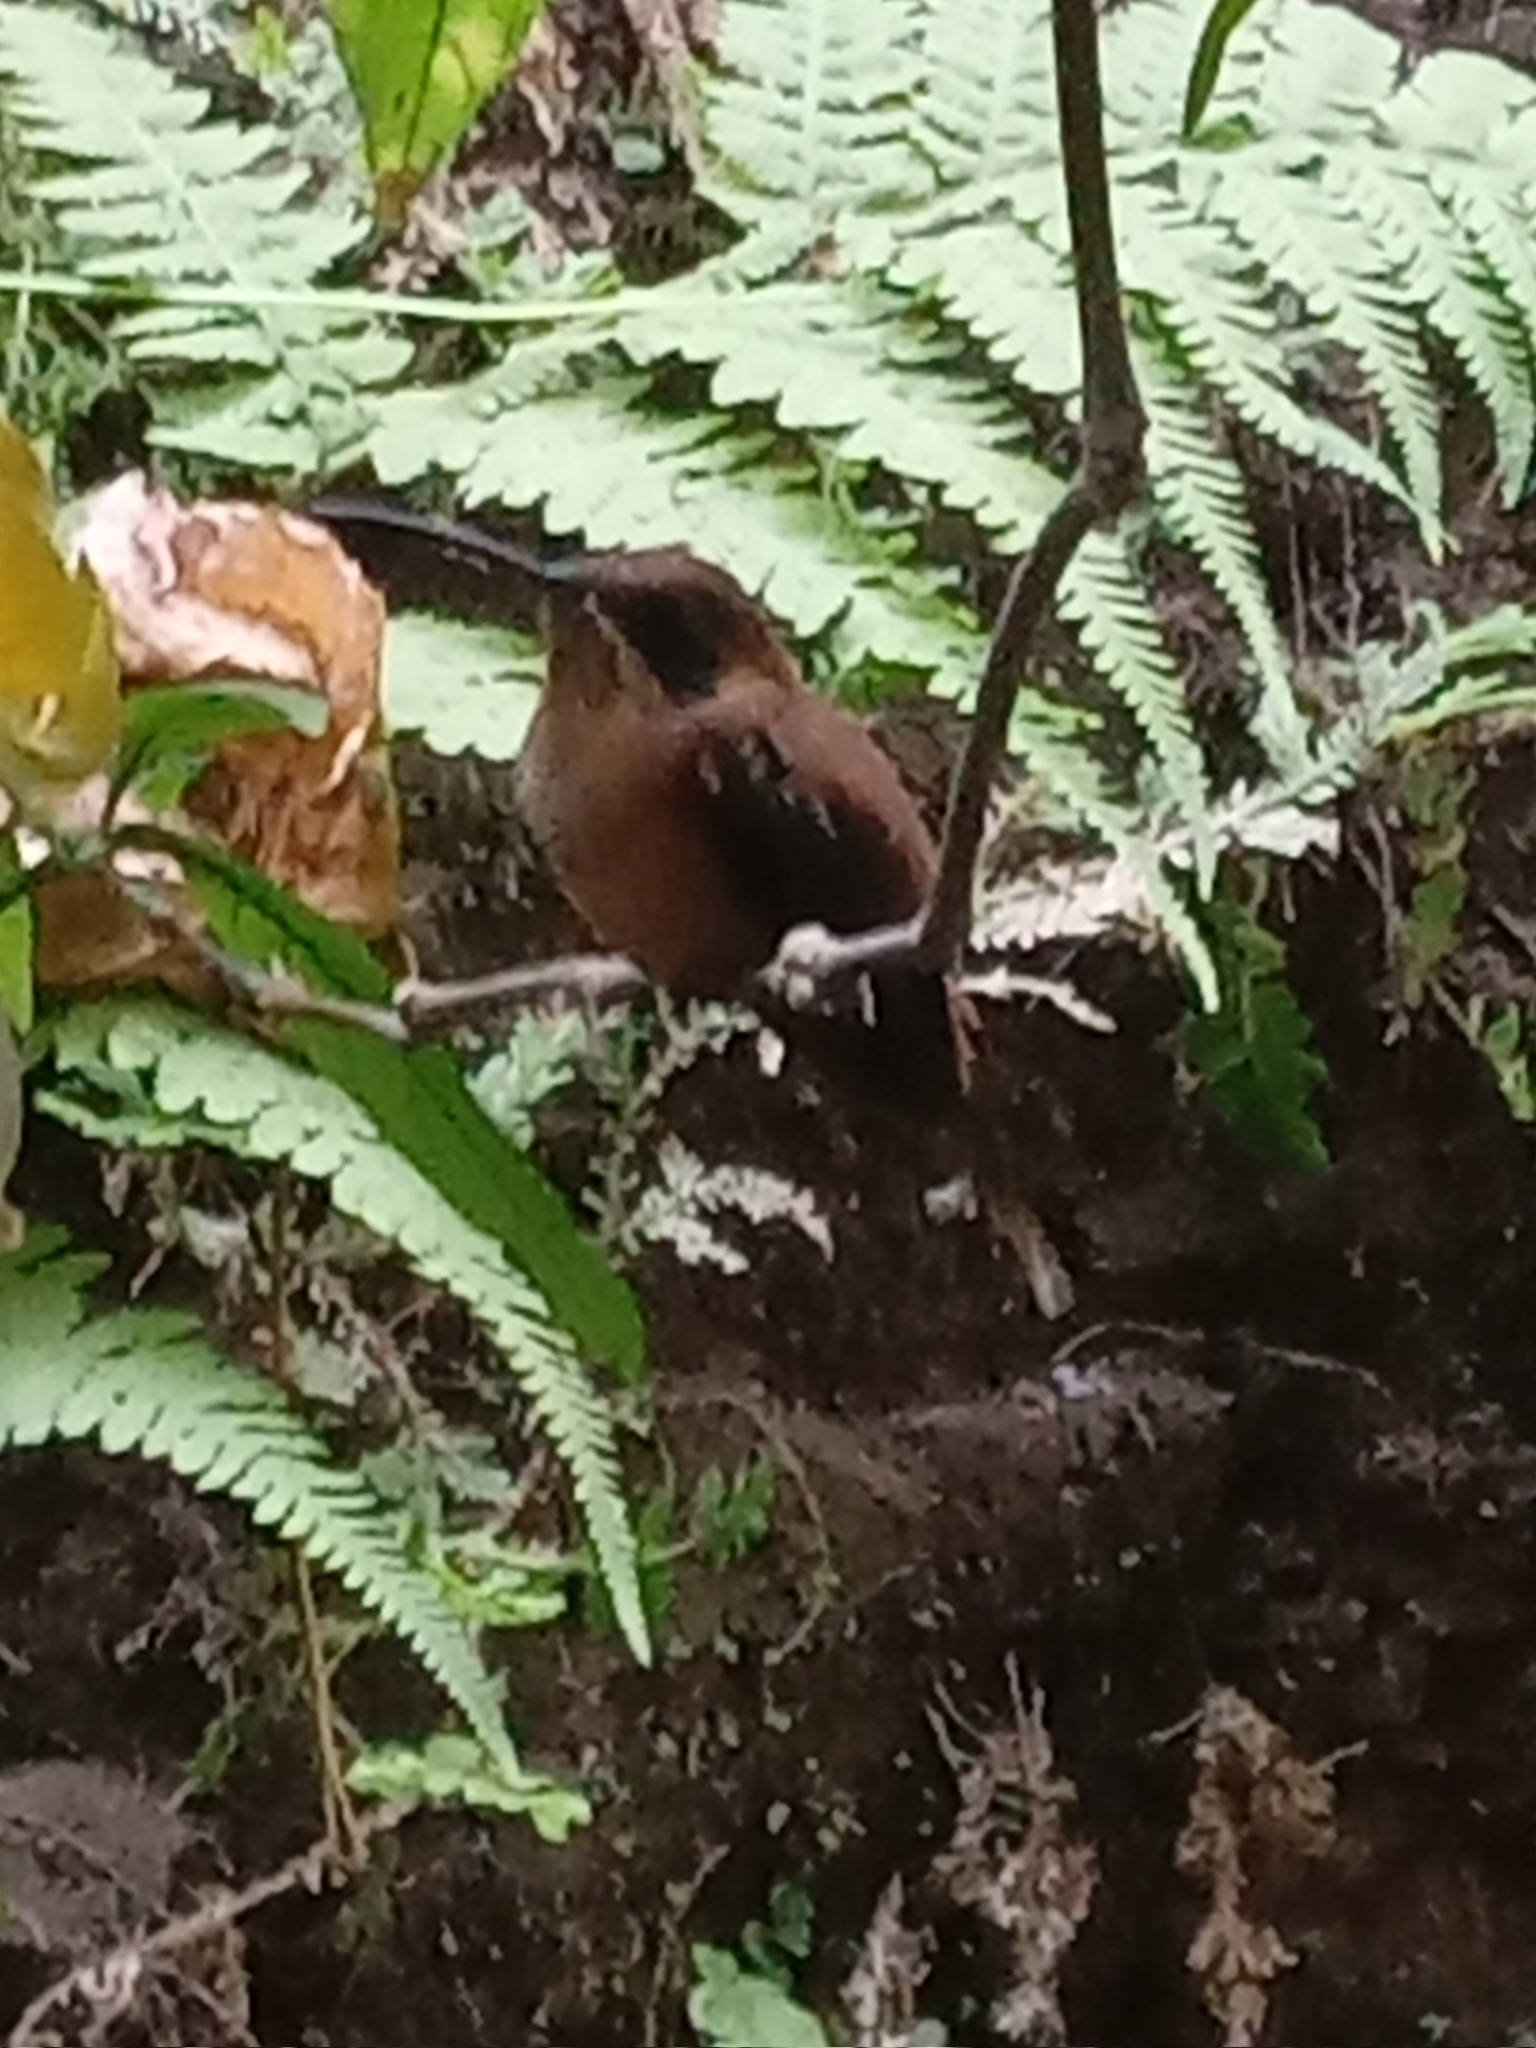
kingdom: Animalia
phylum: Chordata
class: Aves
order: Apodiformes
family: Trochilidae
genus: Phaethornis
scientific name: Phaethornis striigularis
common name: Stripe-throated hermit
